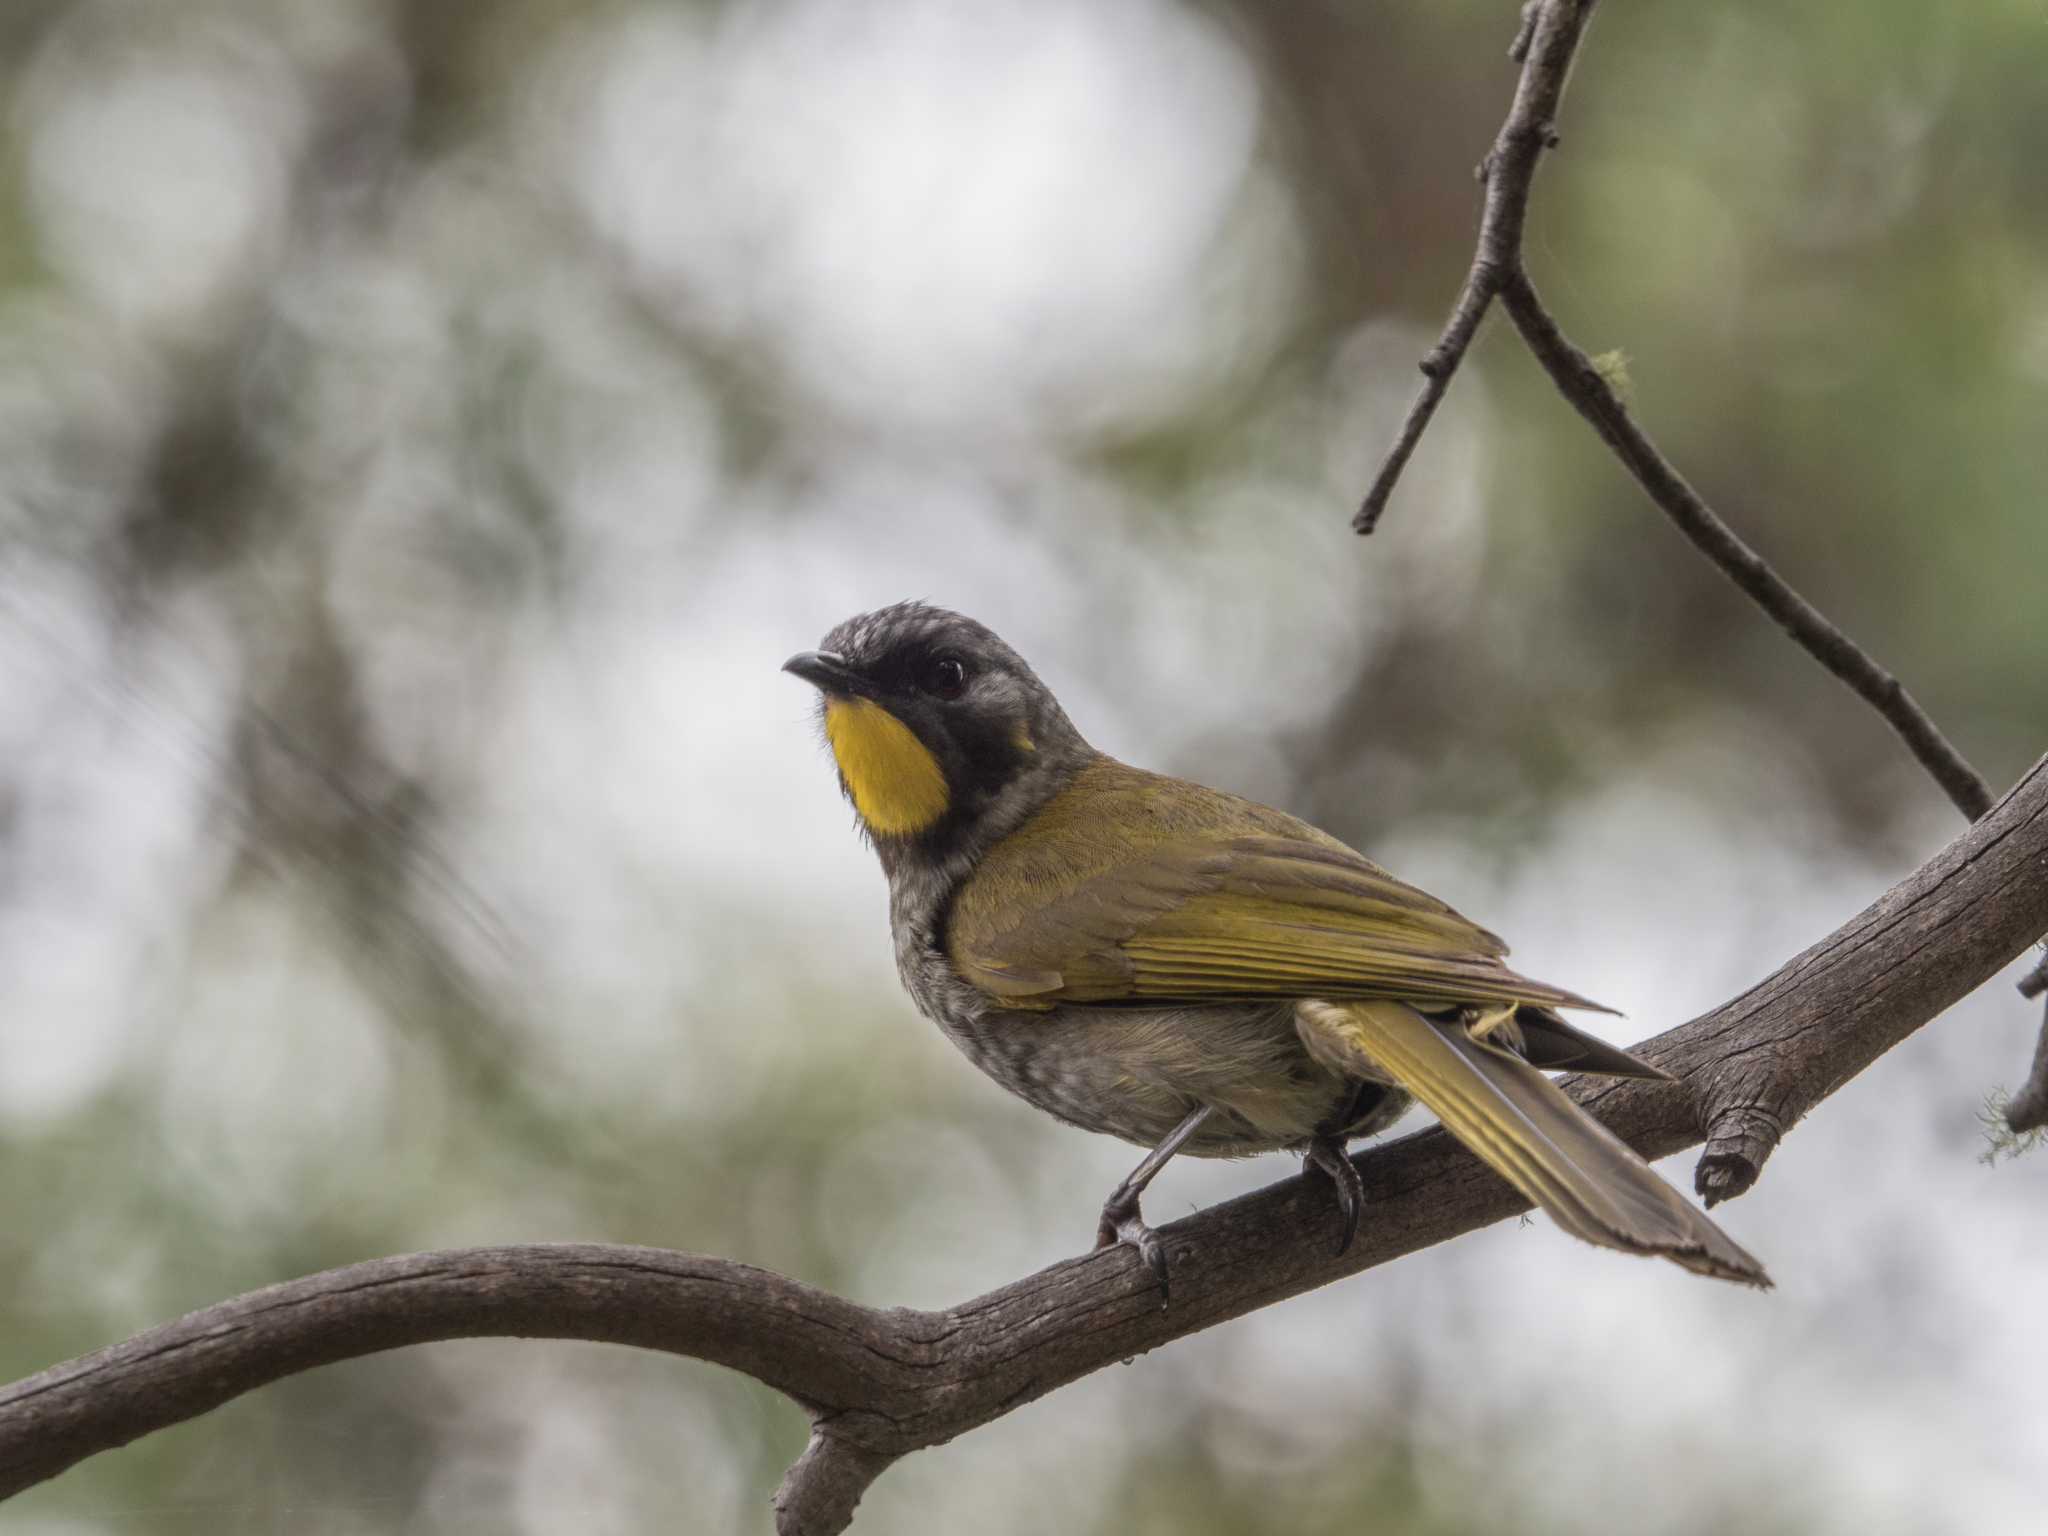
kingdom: Animalia
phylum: Chordata
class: Aves
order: Passeriformes
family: Meliphagidae
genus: Nesoptilotis
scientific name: Nesoptilotis flavicollis
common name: Yellow-throated honeyeater
